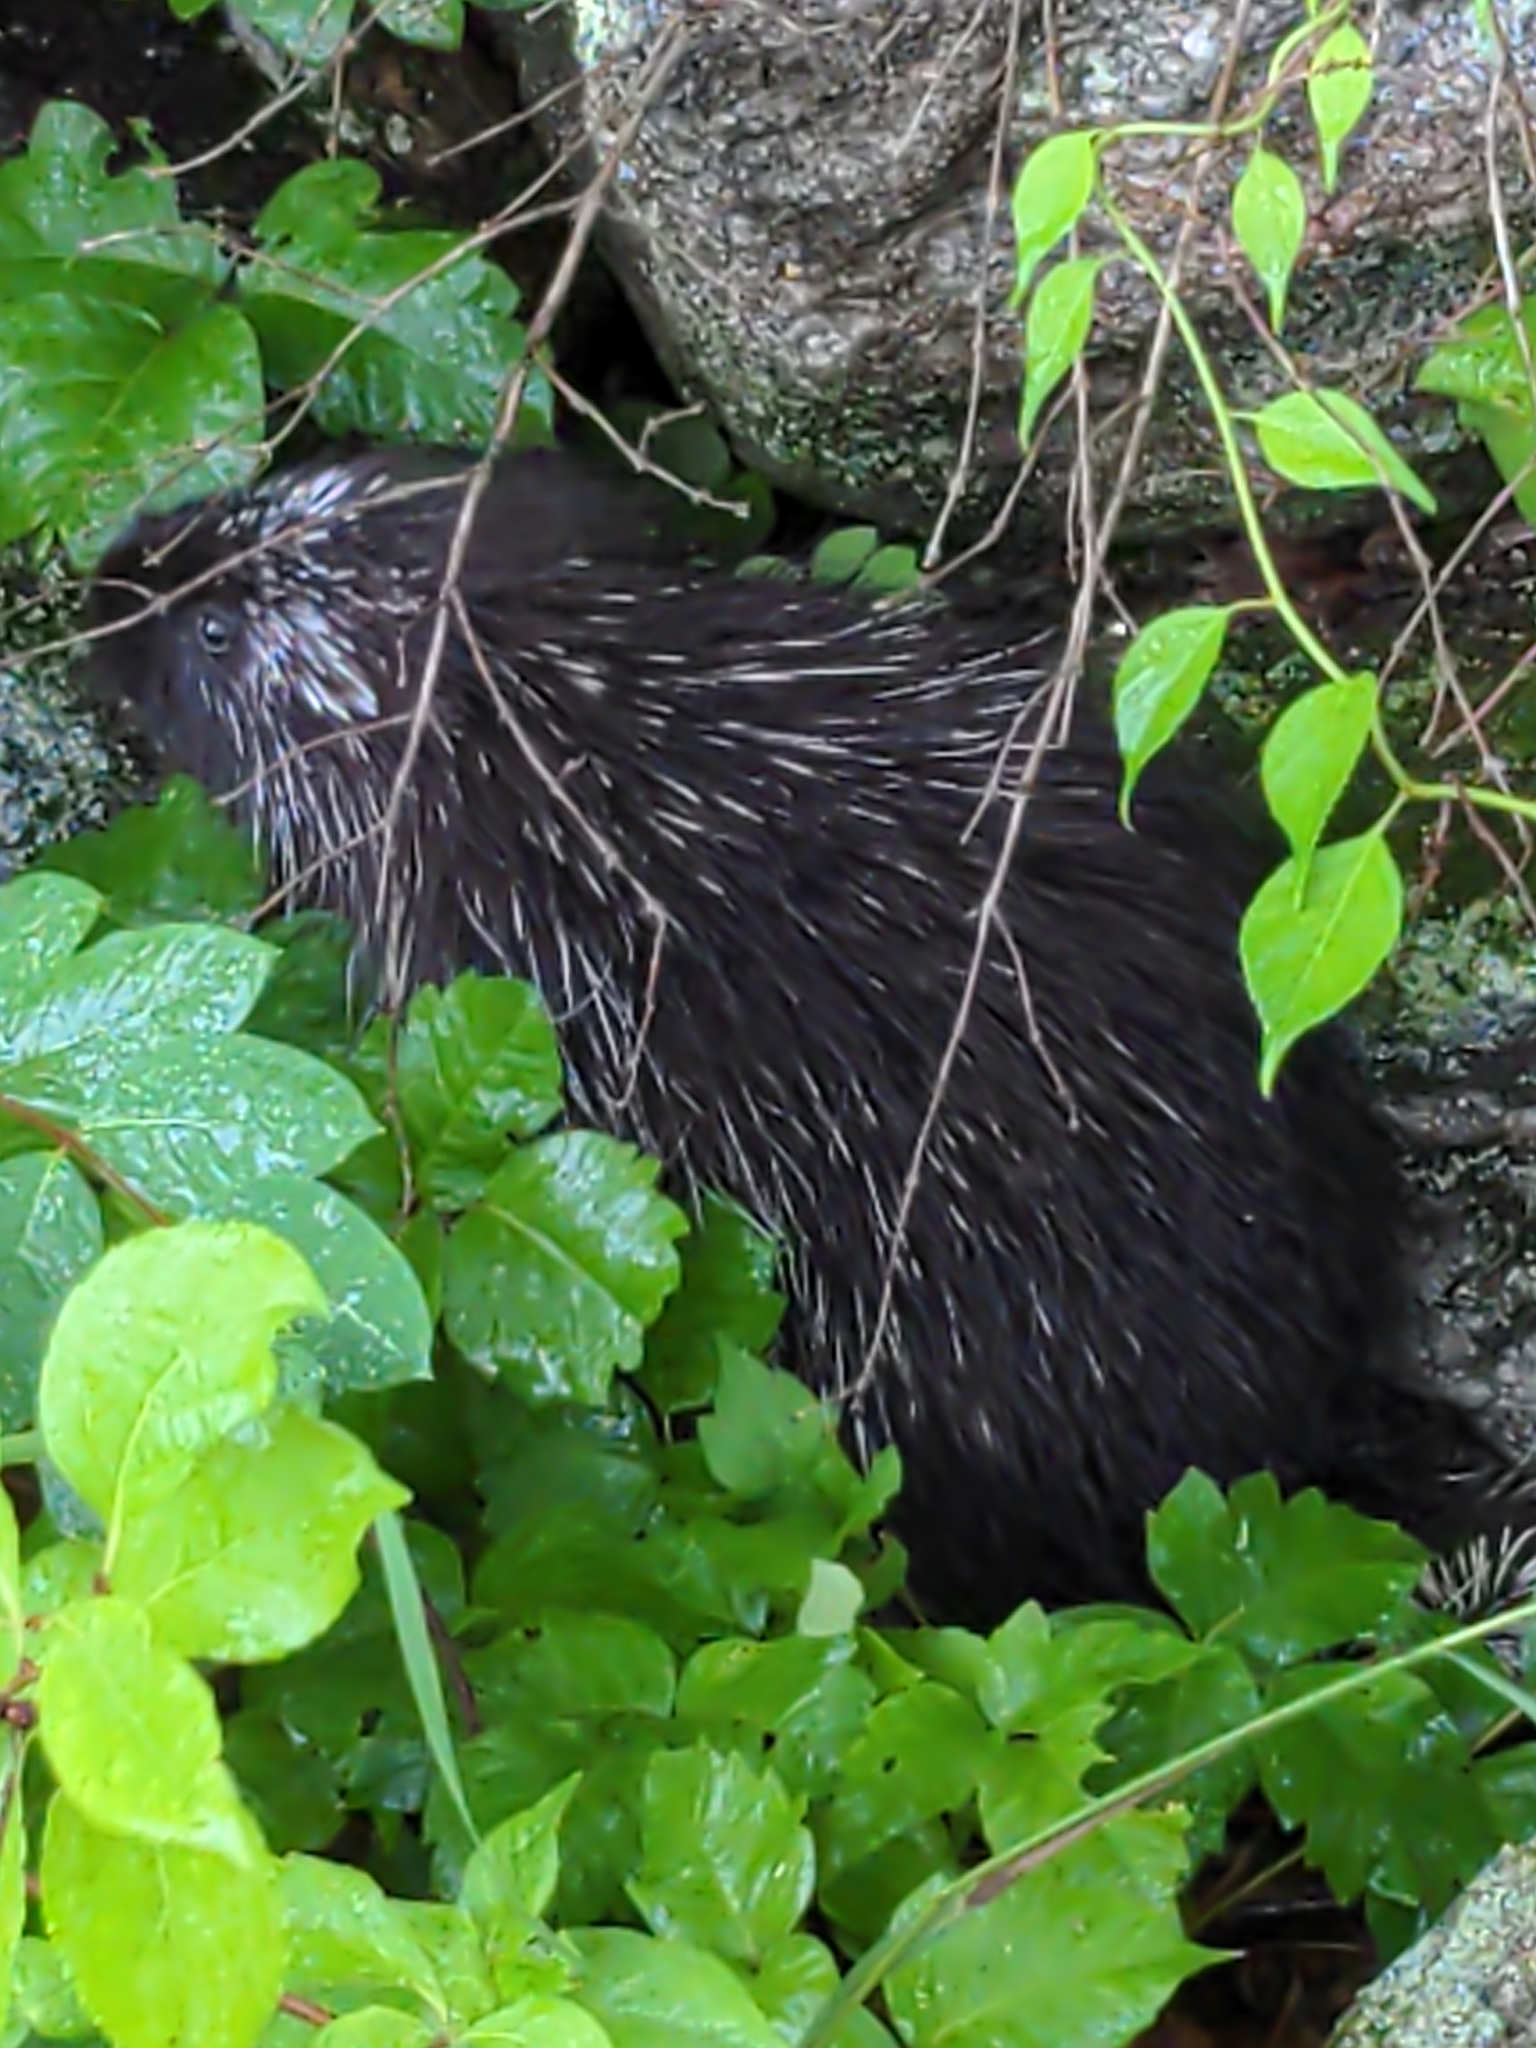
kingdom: Animalia
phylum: Chordata
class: Mammalia
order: Rodentia
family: Erethizontidae
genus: Erethizon
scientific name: Erethizon dorsatus
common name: North american porcupine
